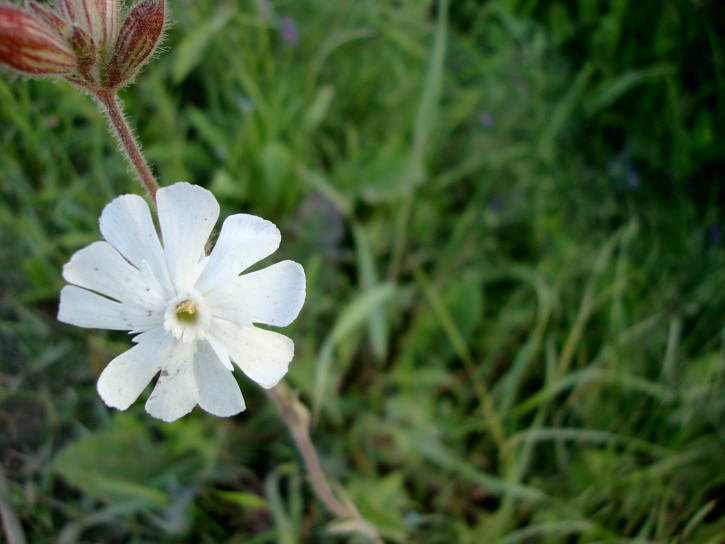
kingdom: Plantae
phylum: Tracheophyta
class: Magnoliopsida
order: Caryophyllales
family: Caryophyllaceae
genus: Silene
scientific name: Silene latifolia
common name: White campion
